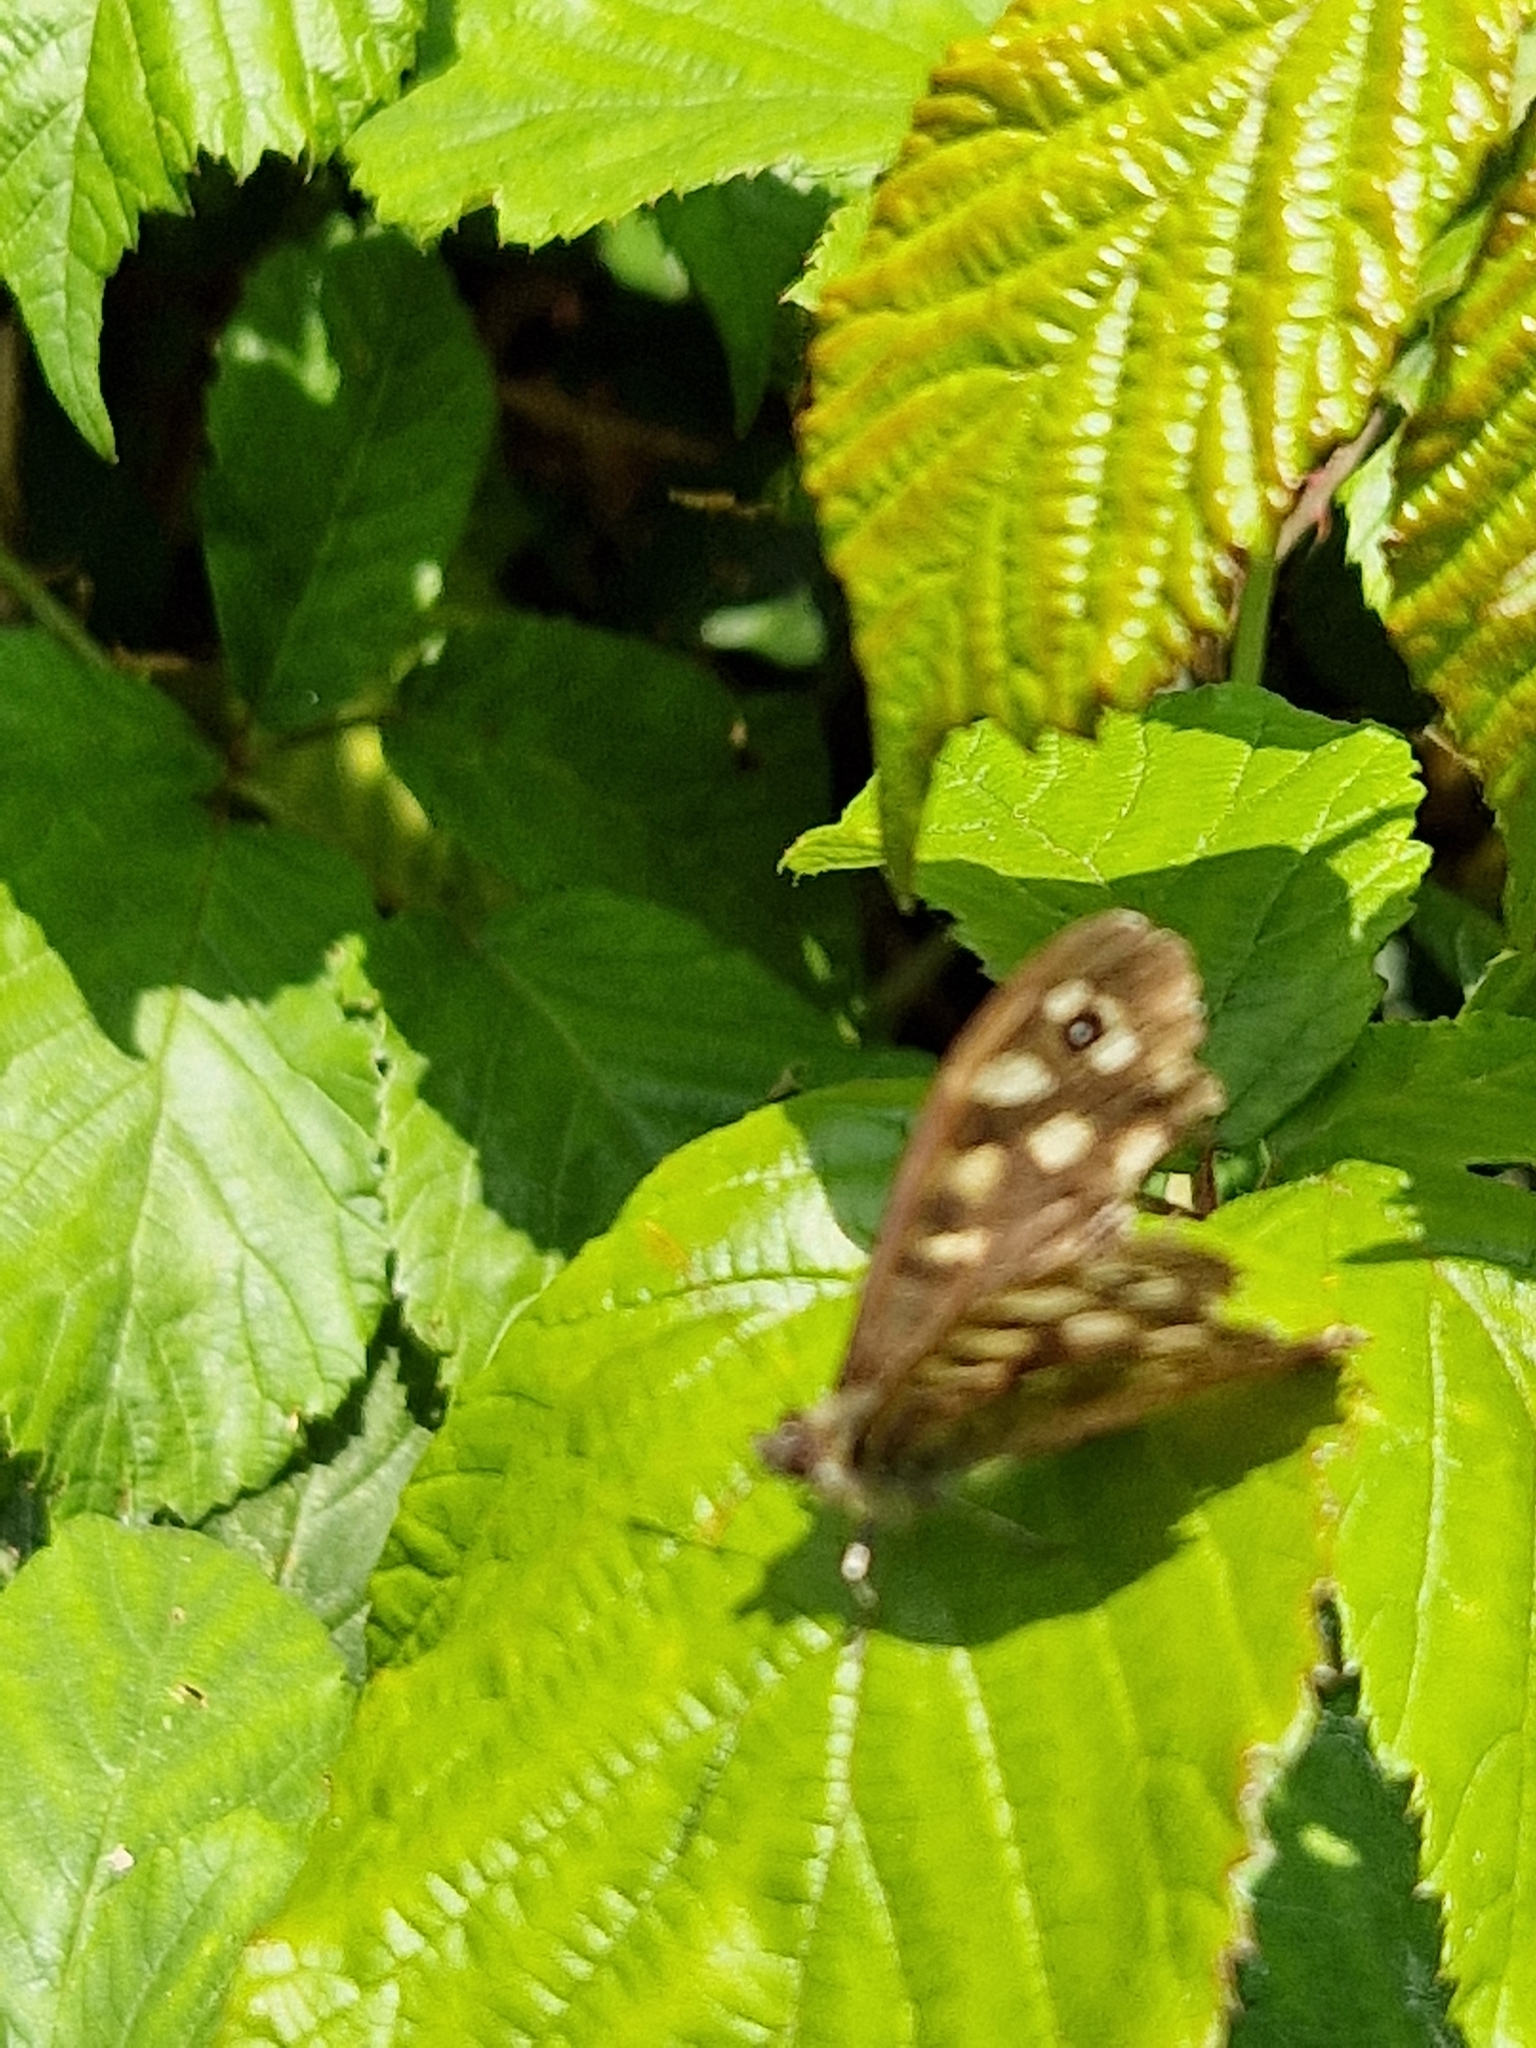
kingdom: Animalia
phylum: Arthropoda
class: Insecta
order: Lepidoptera
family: Nymphalidae
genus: Pararge
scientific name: Pararge aegeria
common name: Speckled wood
